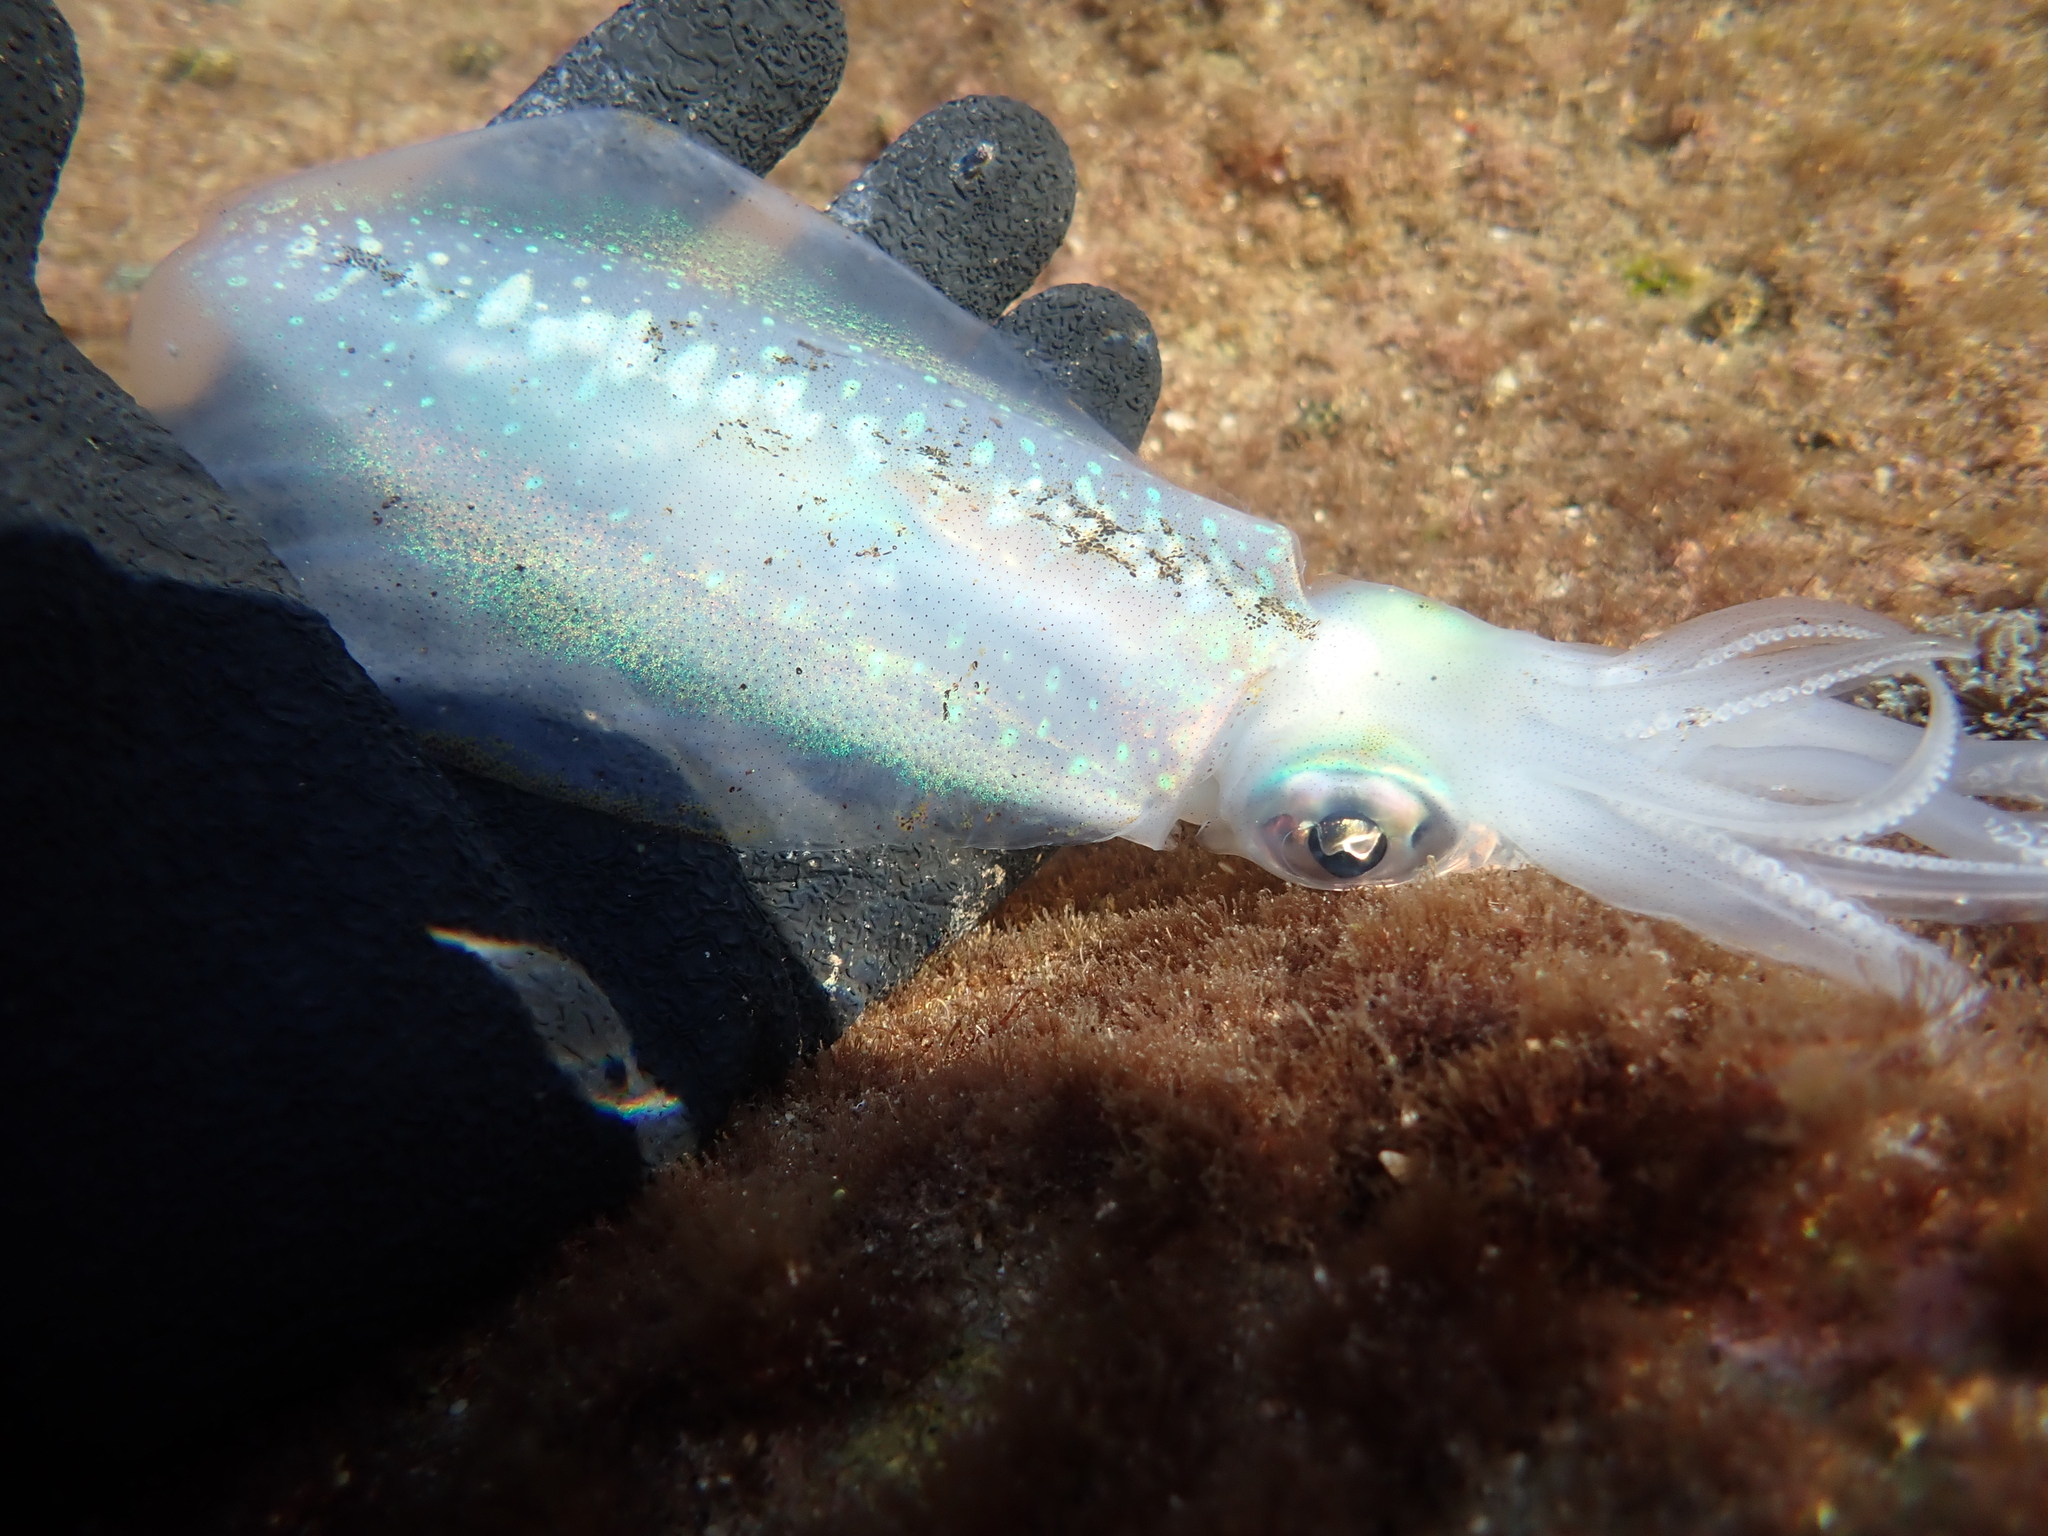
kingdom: Animalia
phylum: Mollusca
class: Cephalopoda
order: Myopsida
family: Loliginidae
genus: Sepioteuthis
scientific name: Sepioteuthis lessoniana
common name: Bigfin reef squid
